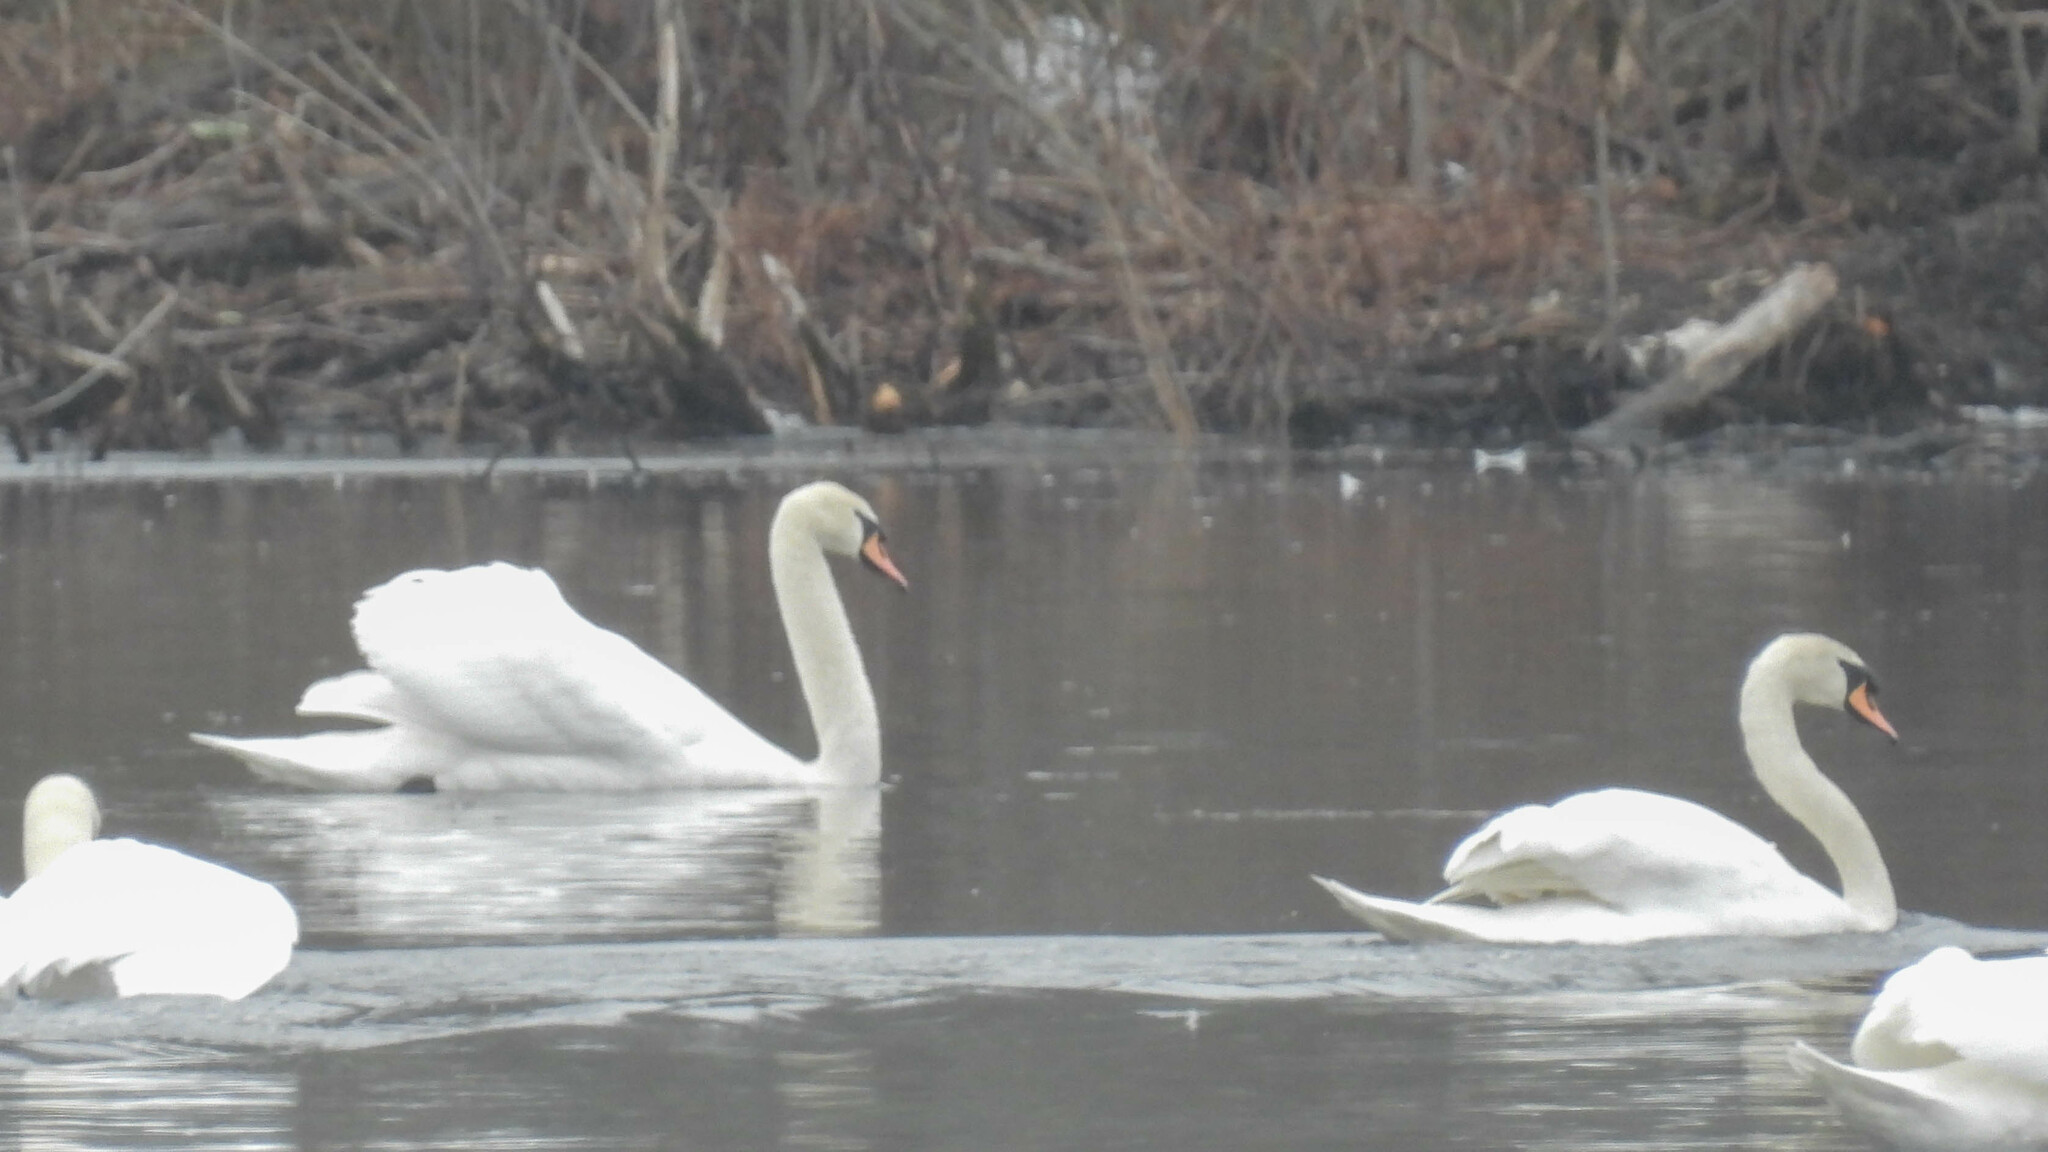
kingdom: Animalia
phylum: Chordata
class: Aves
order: Anseriformes
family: Anatidae
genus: Cygnus
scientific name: Cygnus olor
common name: Mute swan
